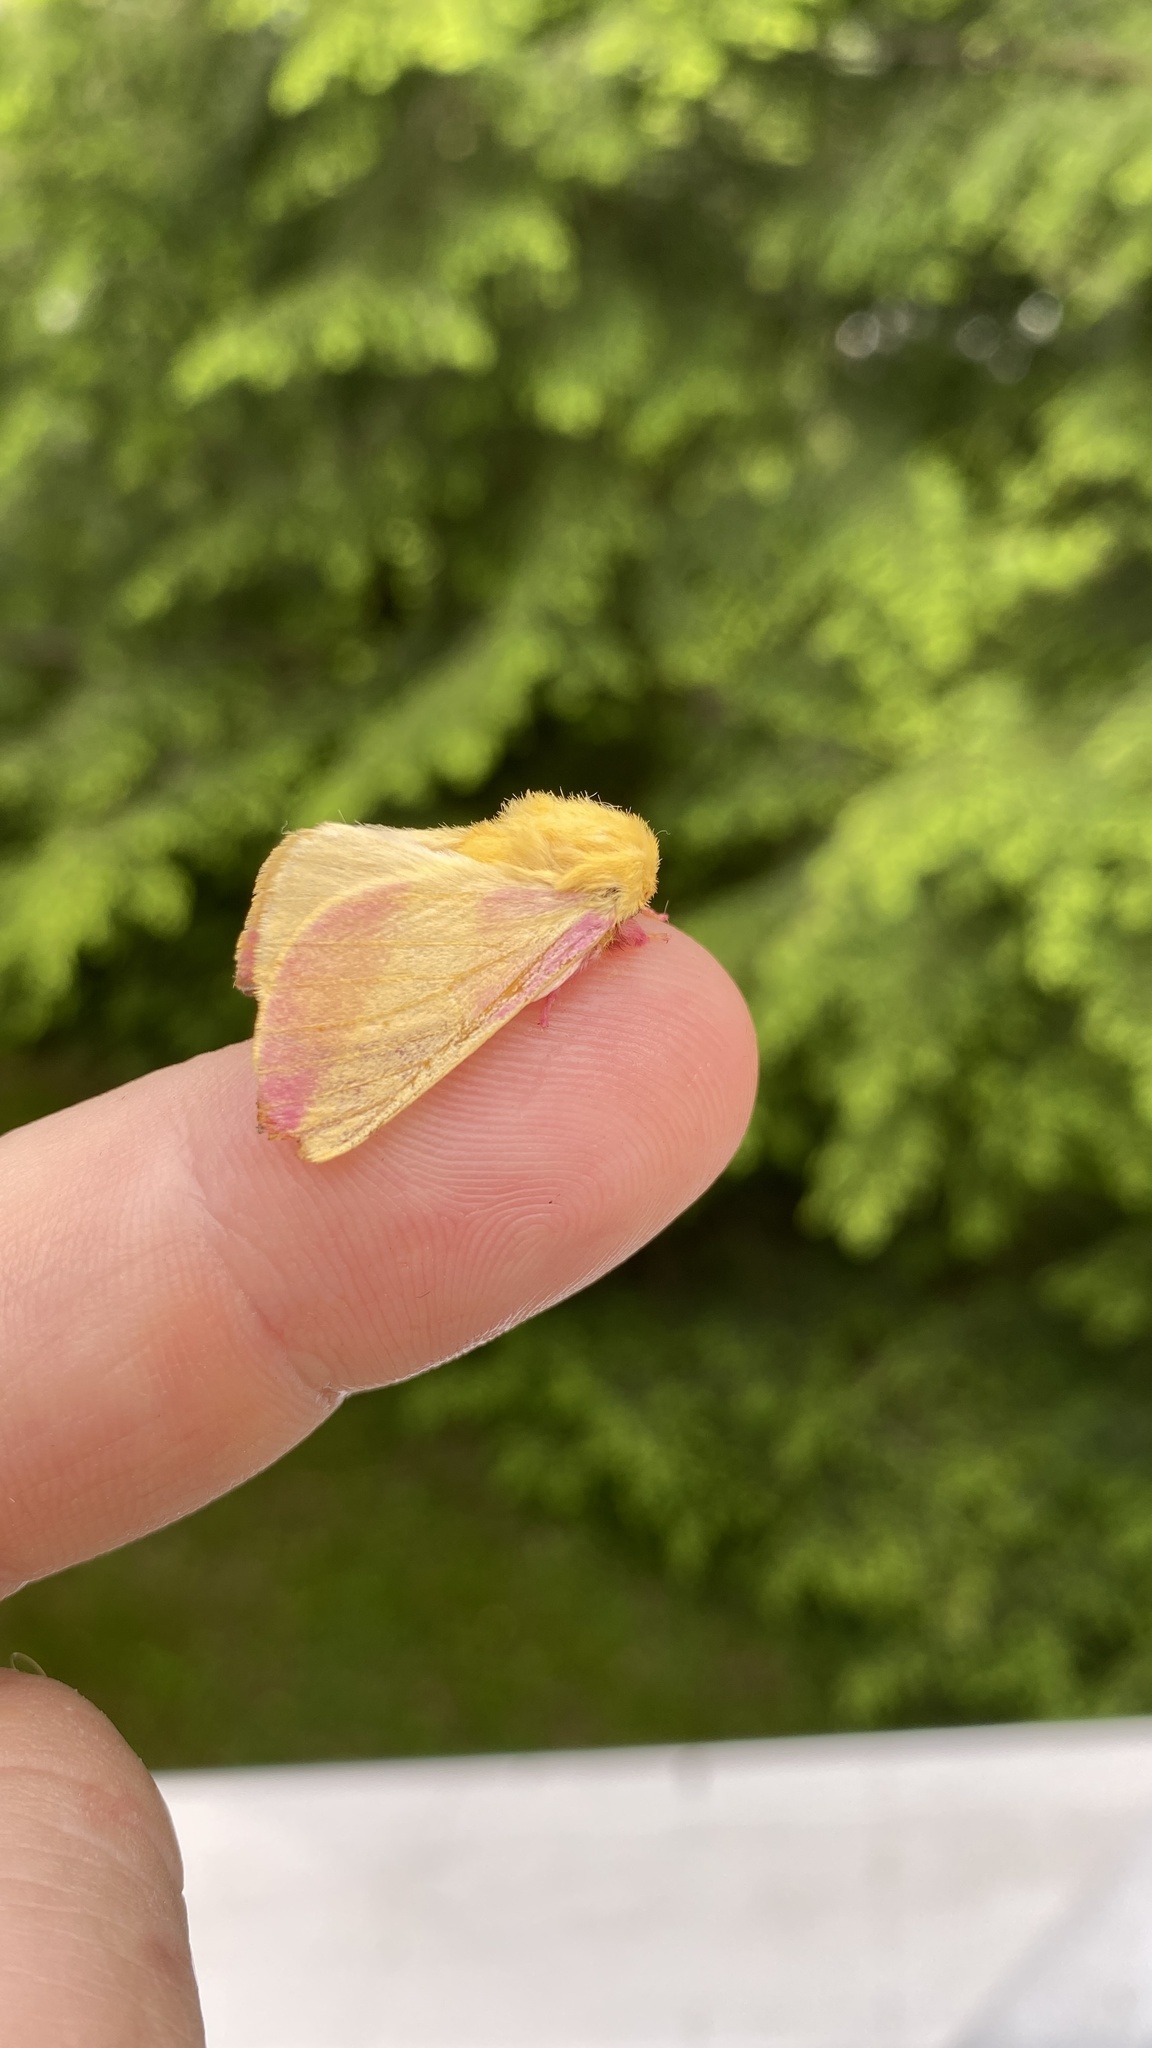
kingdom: Animalia
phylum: Arthropoda
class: Insecta
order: Lepidoptera
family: Saturniidae
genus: Dryocampa
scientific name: Dryocampa rubicunda
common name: Rosy maple moth
